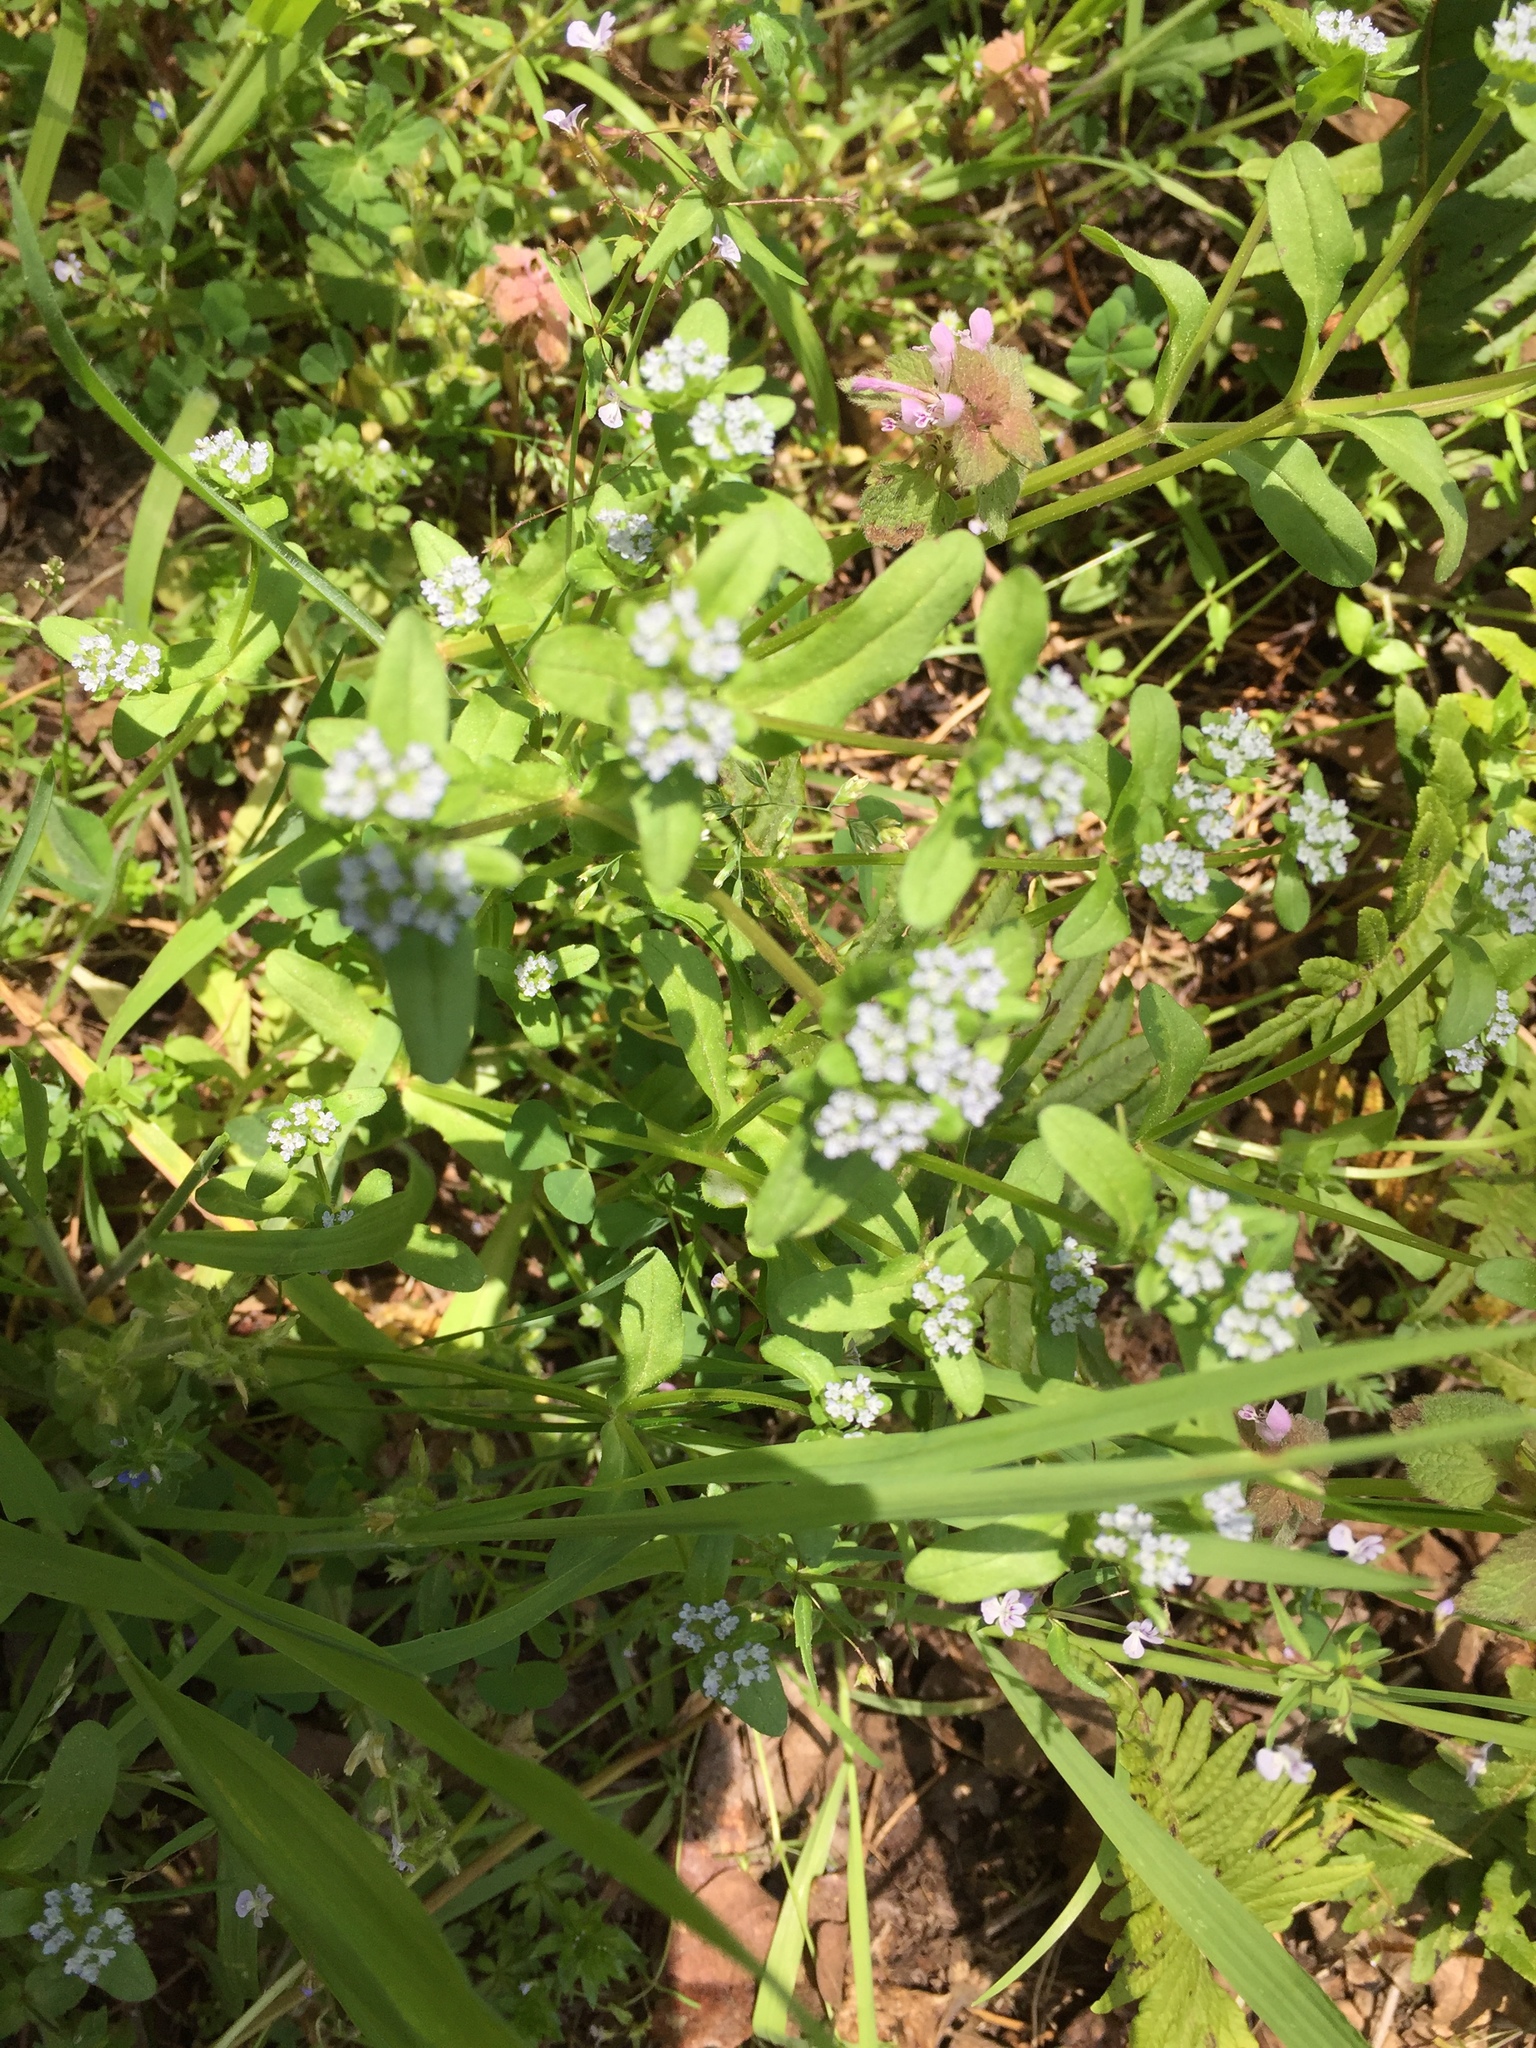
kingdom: Plantae
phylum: Tracheophyta
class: Magnoliopsida
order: Dipsacales
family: Caprifoliaceae
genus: Valerianella
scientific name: Valerianella locusta
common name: Common cornsalad
